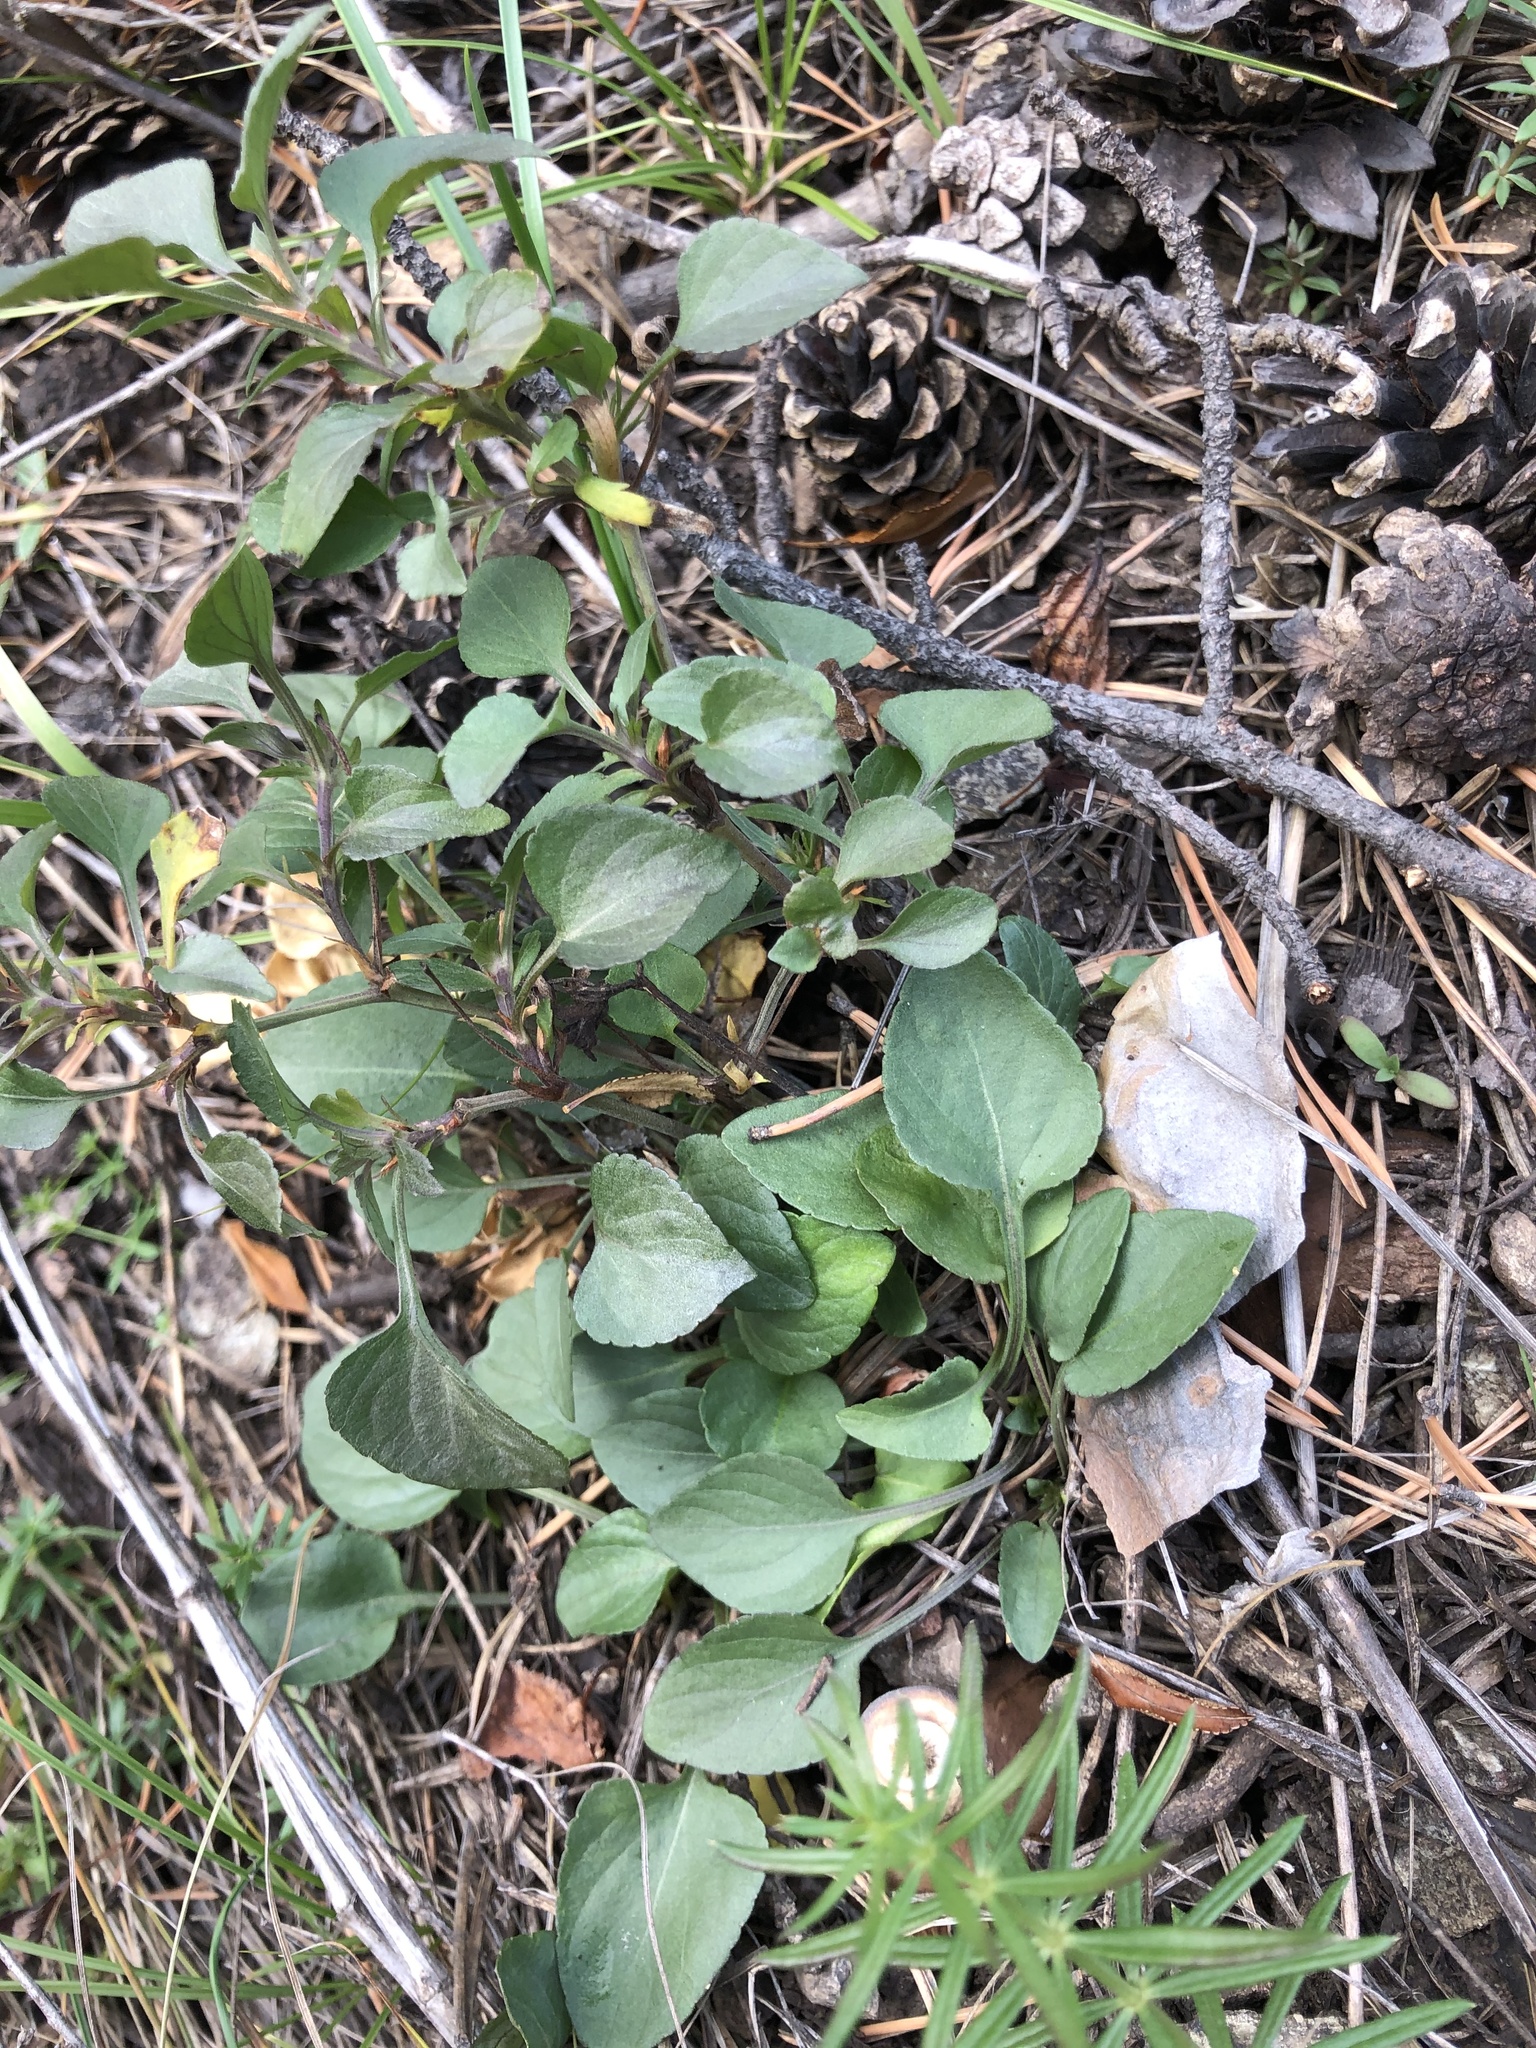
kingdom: Plantae
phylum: Tracheophyta
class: Magnoliopsida
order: Malpighiales
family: Violaceae
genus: Viola
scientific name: Viola rupestris
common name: Teesdale violet
